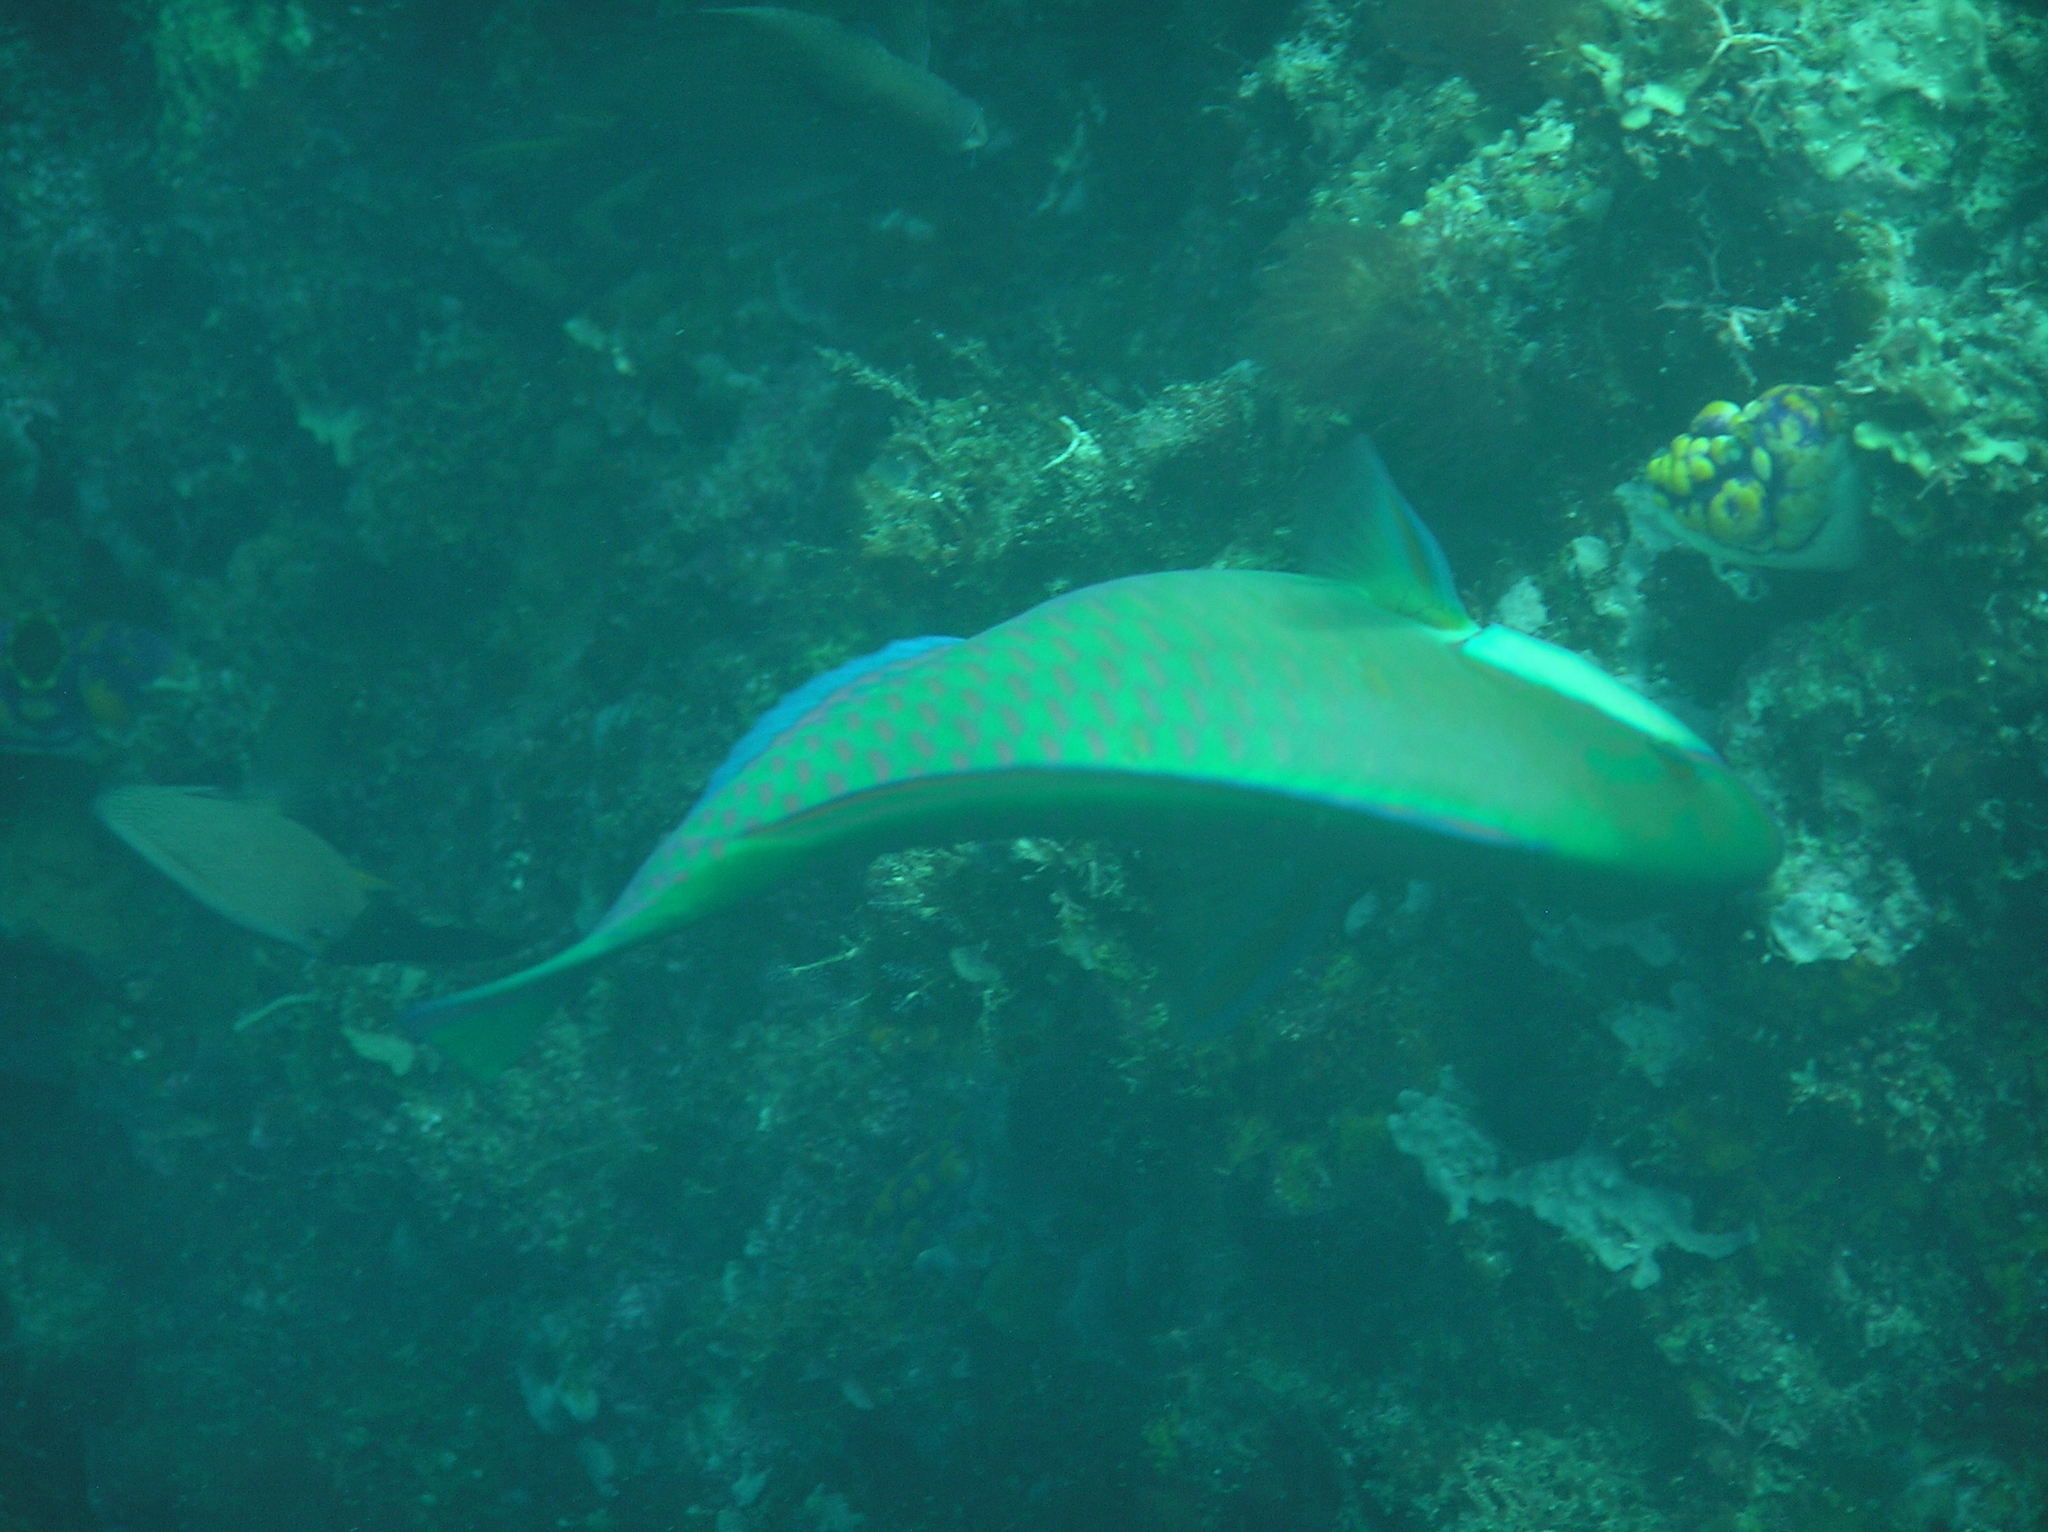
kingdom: Animalia
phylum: Chordata
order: Perciformes
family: Scaridae
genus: Chlorurus
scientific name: Chlorurus bleekeri
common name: Bleeker's parrotfish
